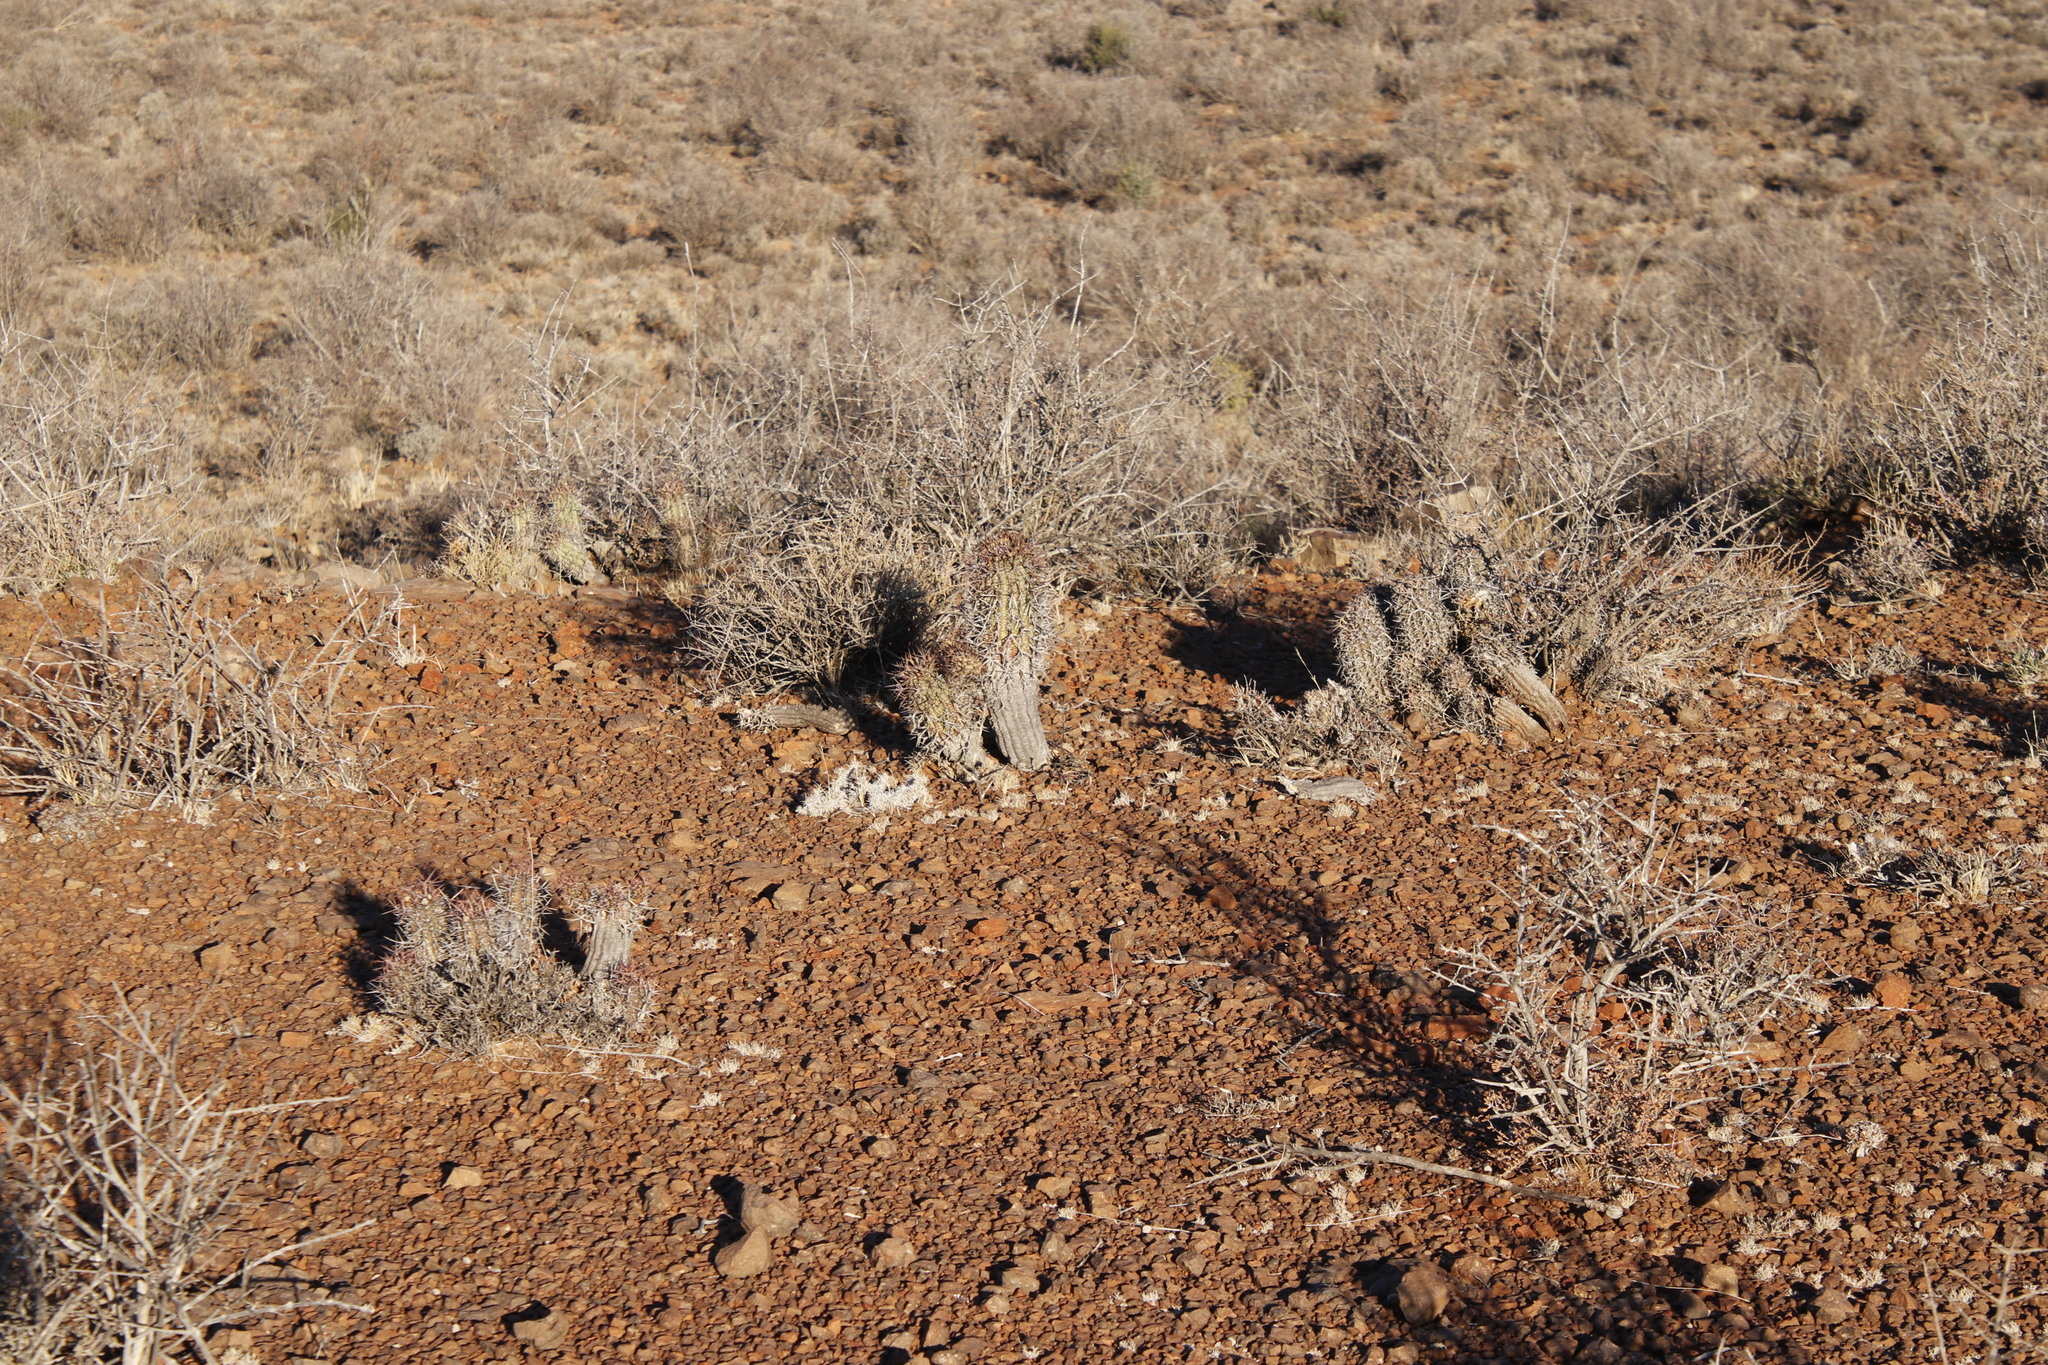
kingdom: Plantae
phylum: Tracheophyta
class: Magnoliopsida
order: Malpighiales
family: Euphorbiaceae
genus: Euphorbia
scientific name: Euphorbia stellispina
